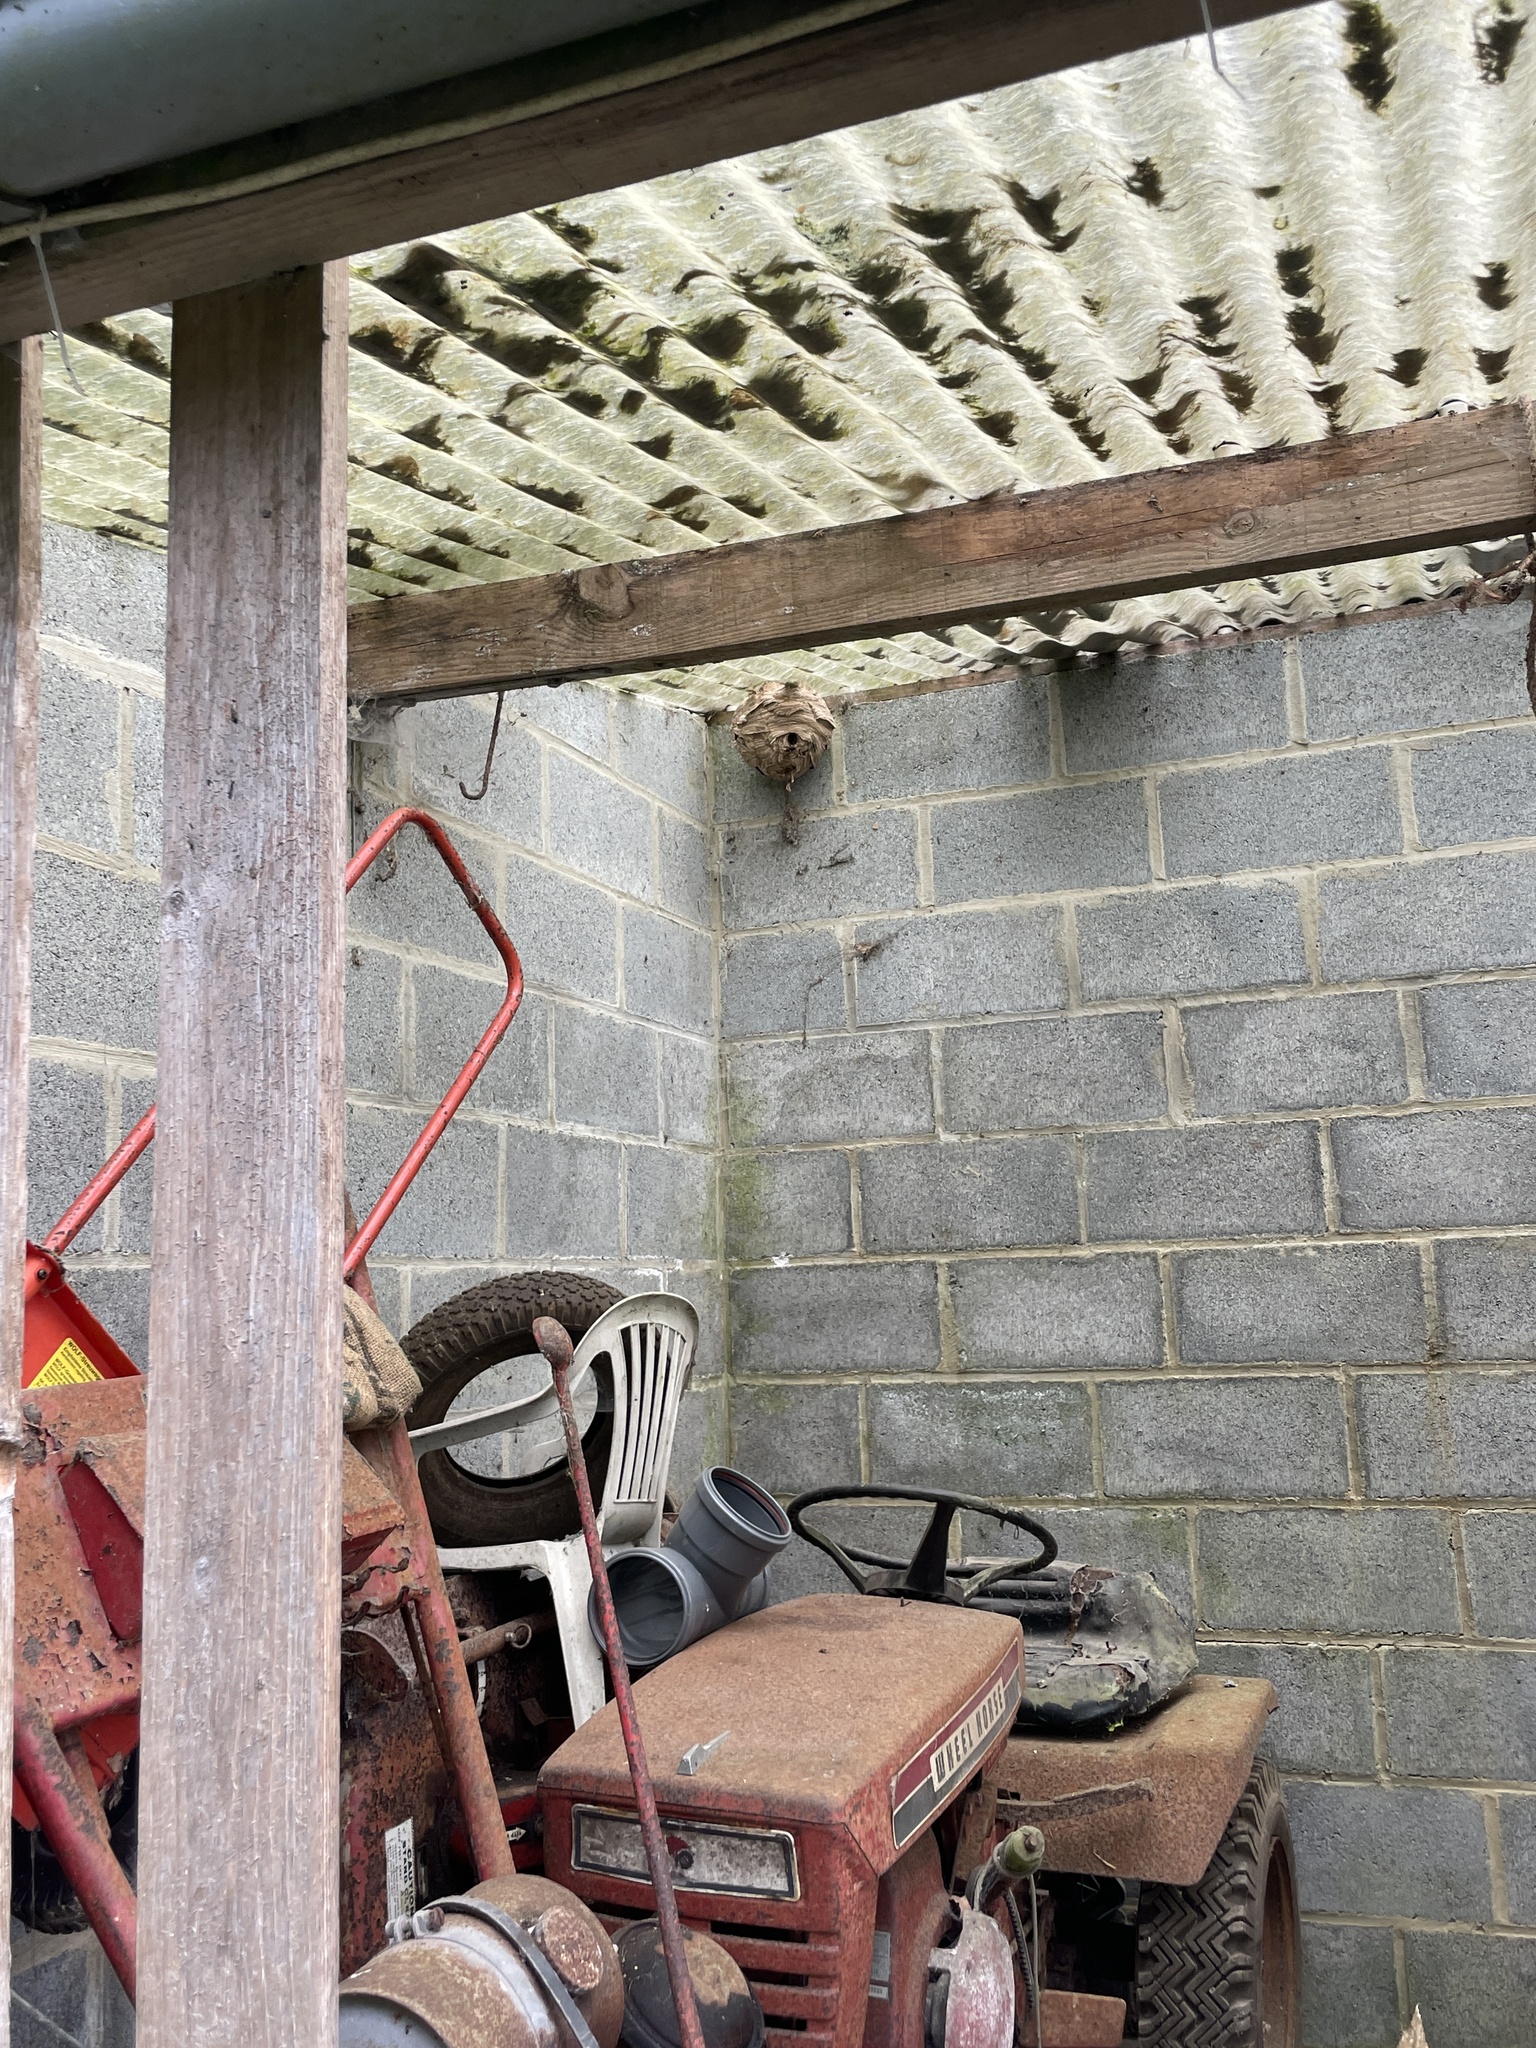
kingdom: Animalia
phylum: Arthropoda
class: Insecta
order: Hymenoptera
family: Vespidae
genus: Vespa
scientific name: Vespa velutina
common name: Asian hornet
